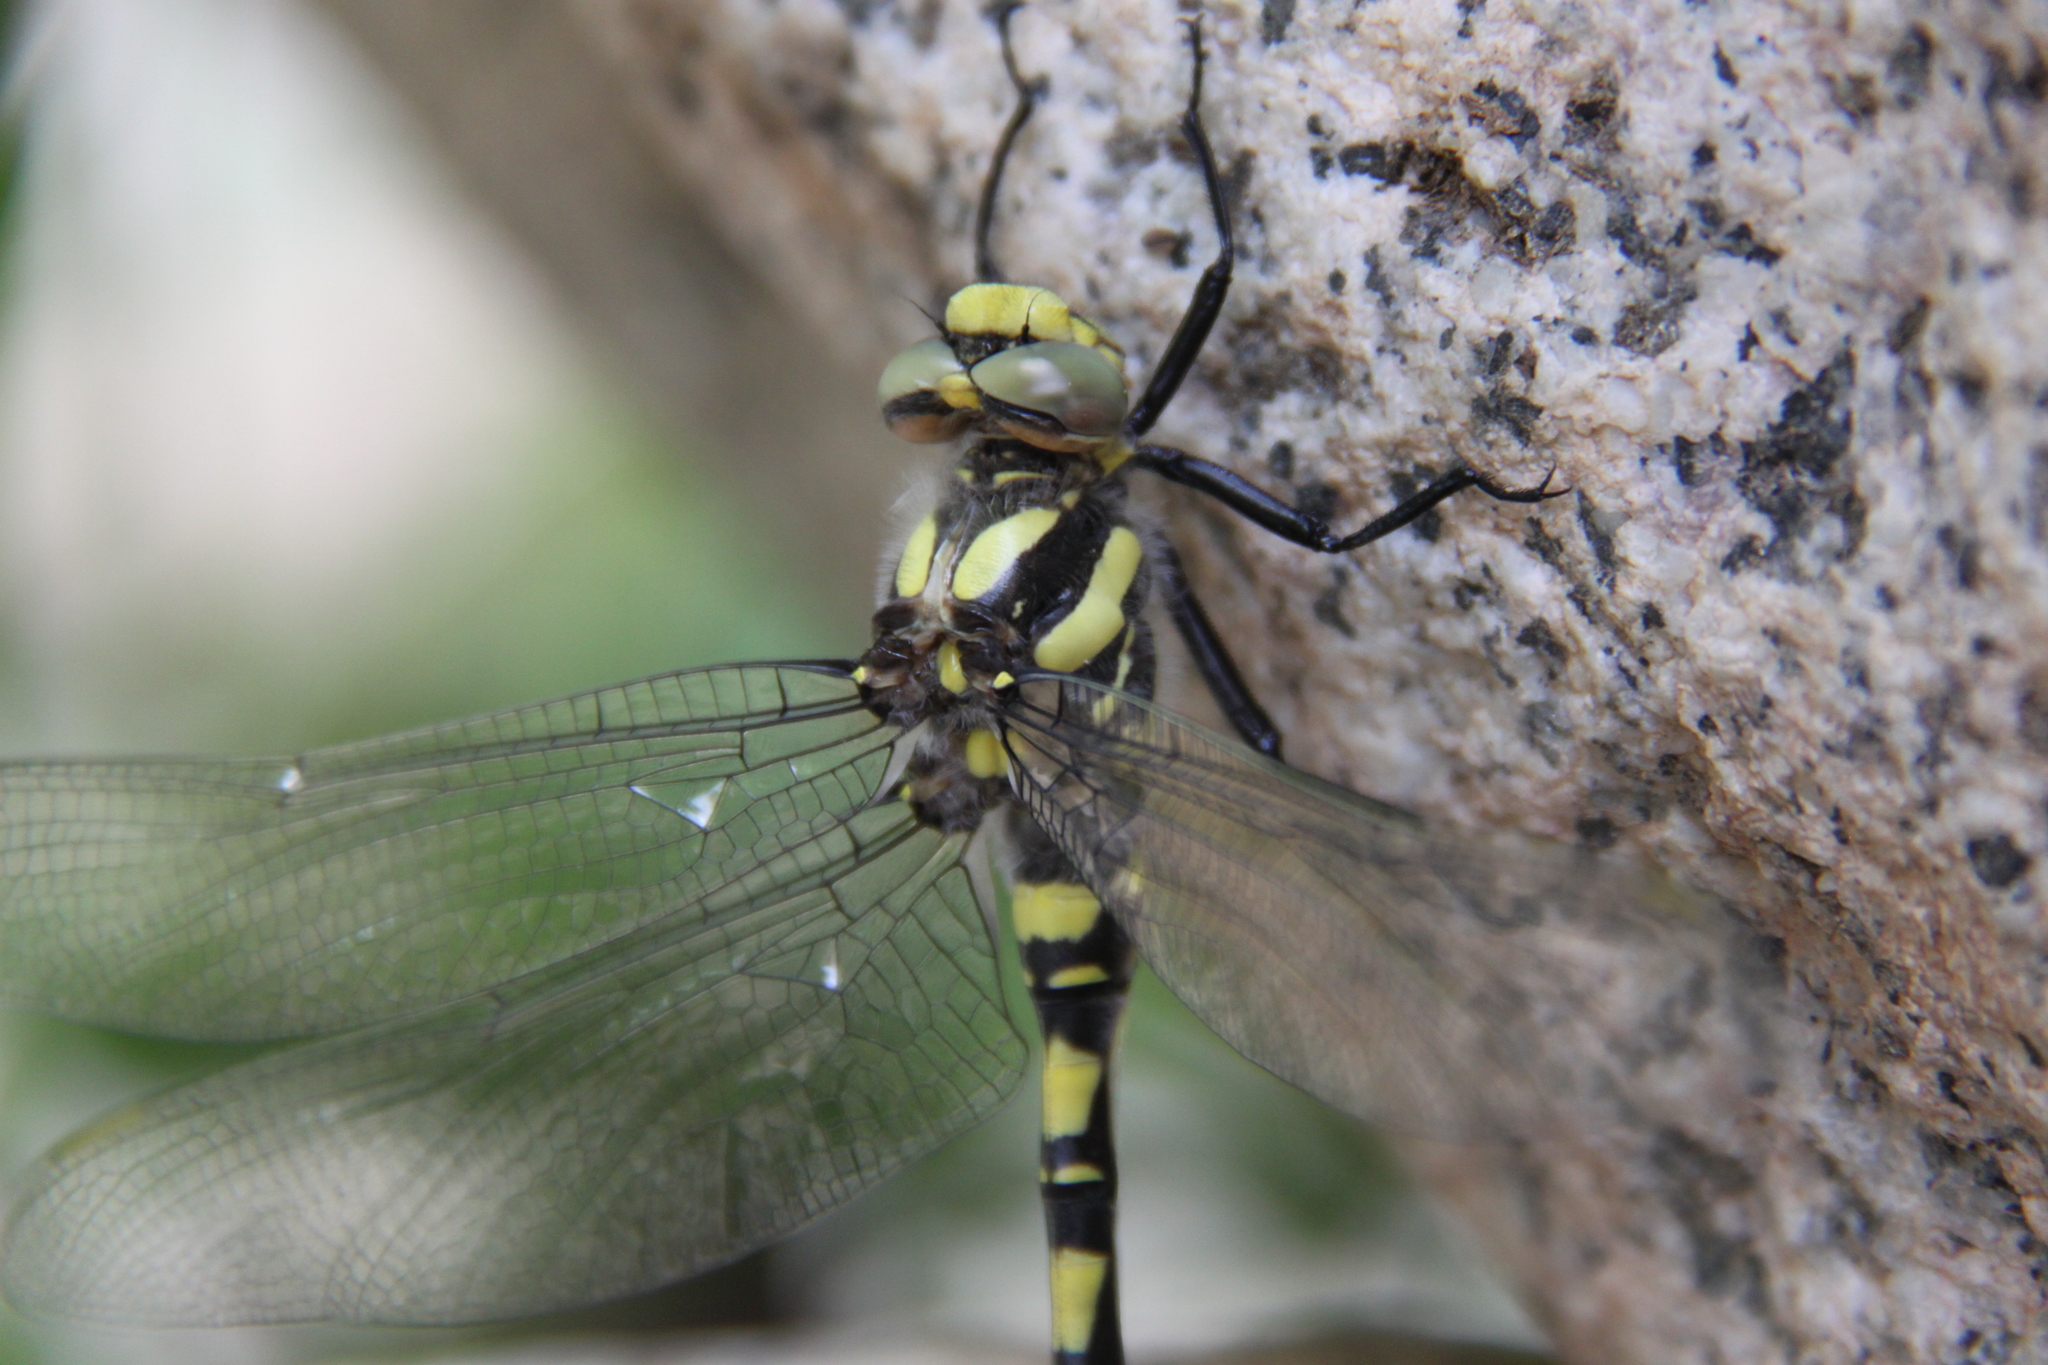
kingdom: Animalia
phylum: Arthropoda
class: Insecta
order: Odonata
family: Cordulegastridae
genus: Cordulegaster
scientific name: Cordulegaster princeps
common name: Atlas goldenring
